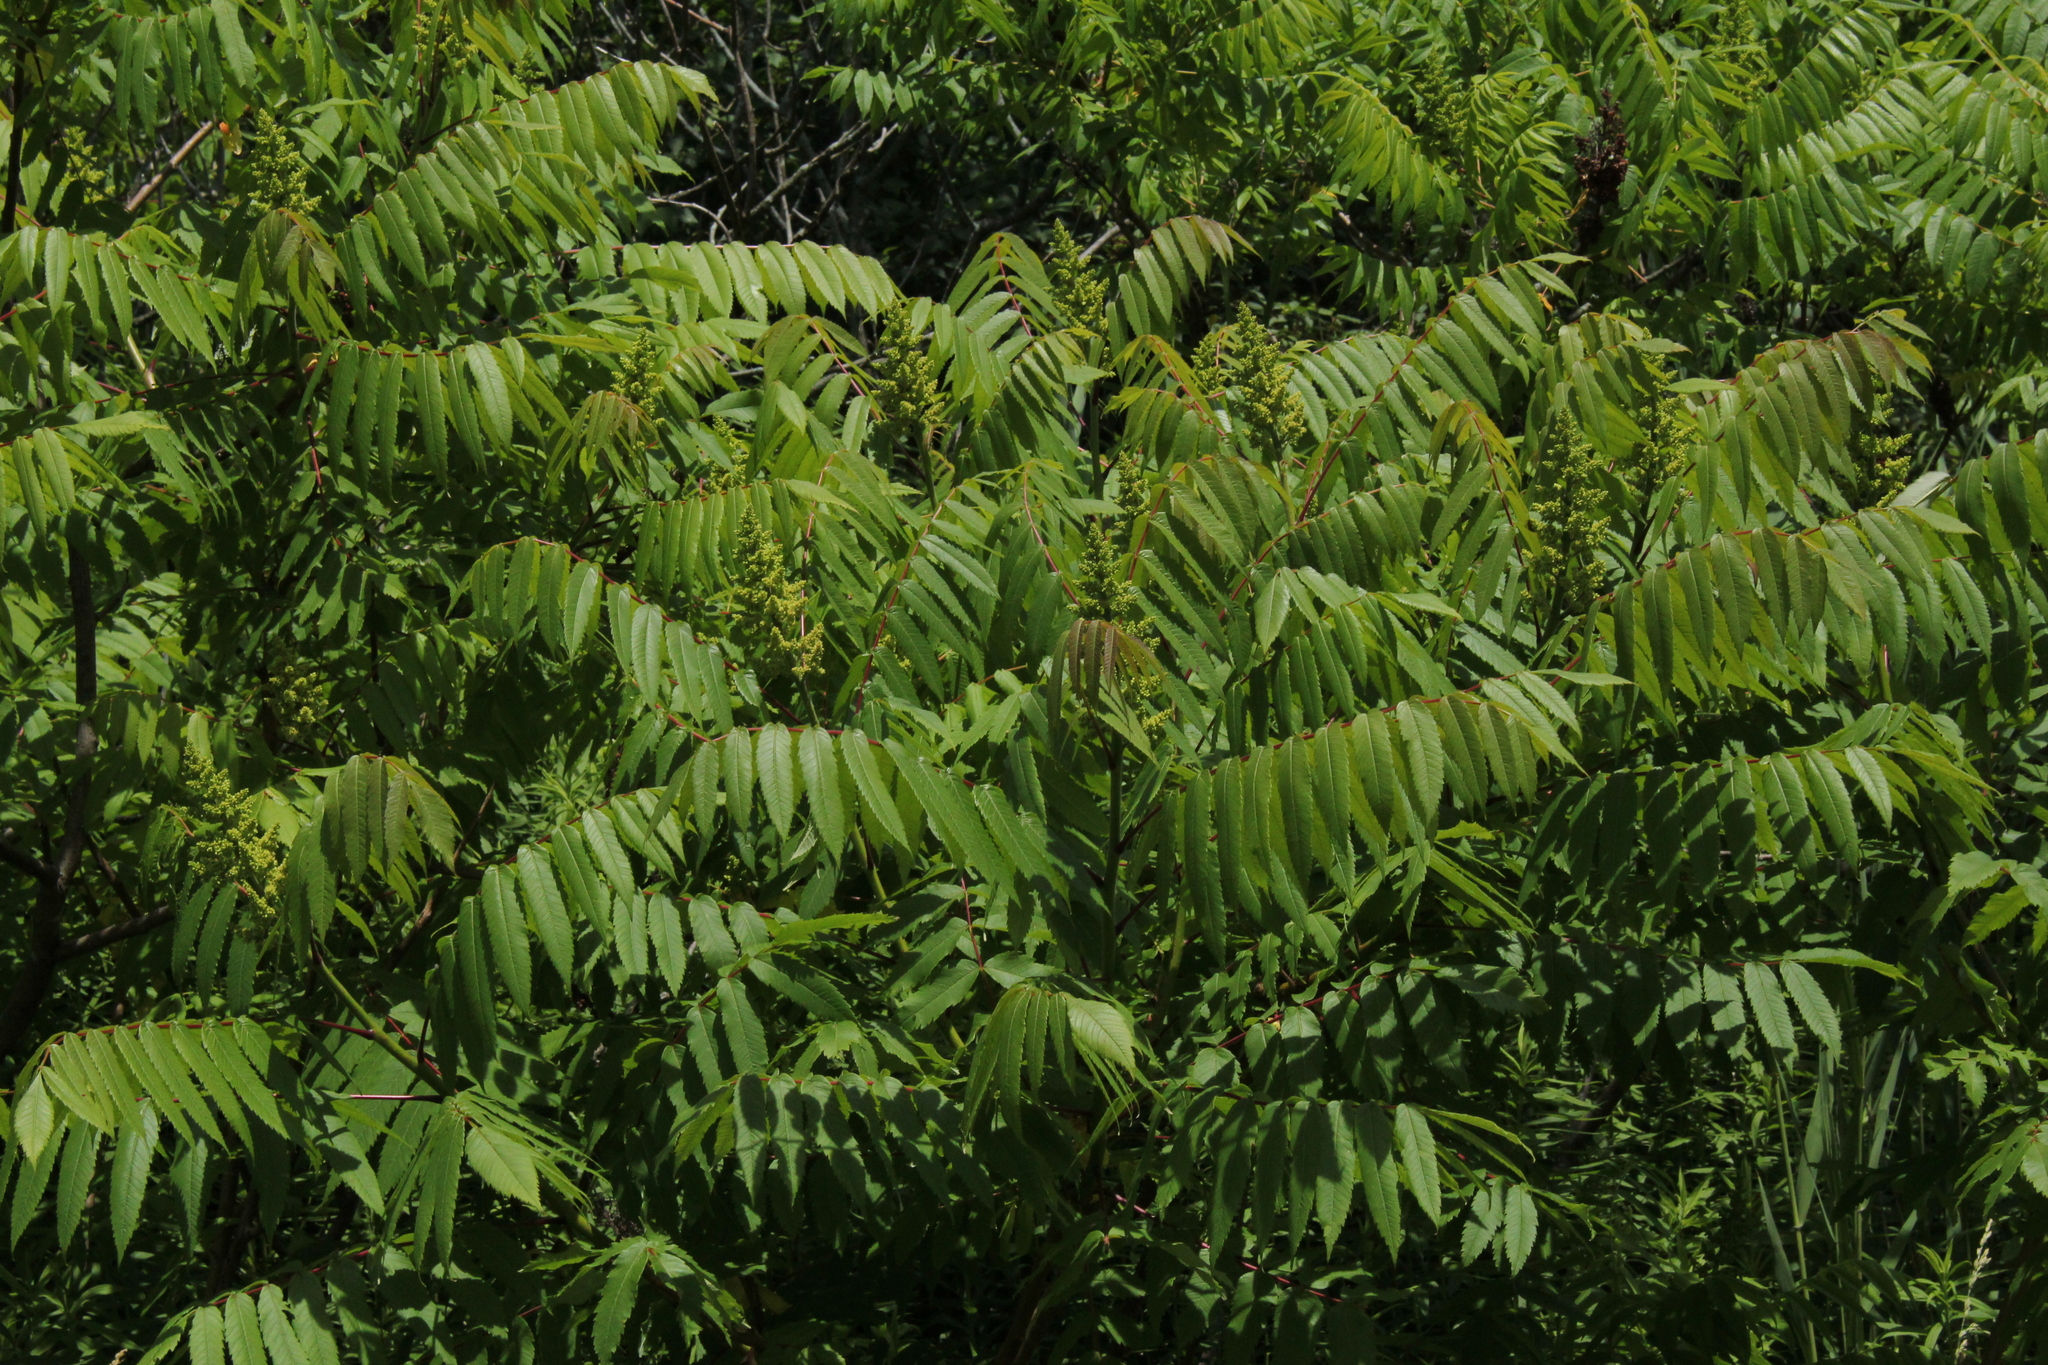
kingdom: Plantae
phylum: Tracheophyta
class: Magnoliopsida
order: Sapindales
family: Anacardiaceae
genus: Rhus
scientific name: Rhus typhina
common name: Staghorn sumac
